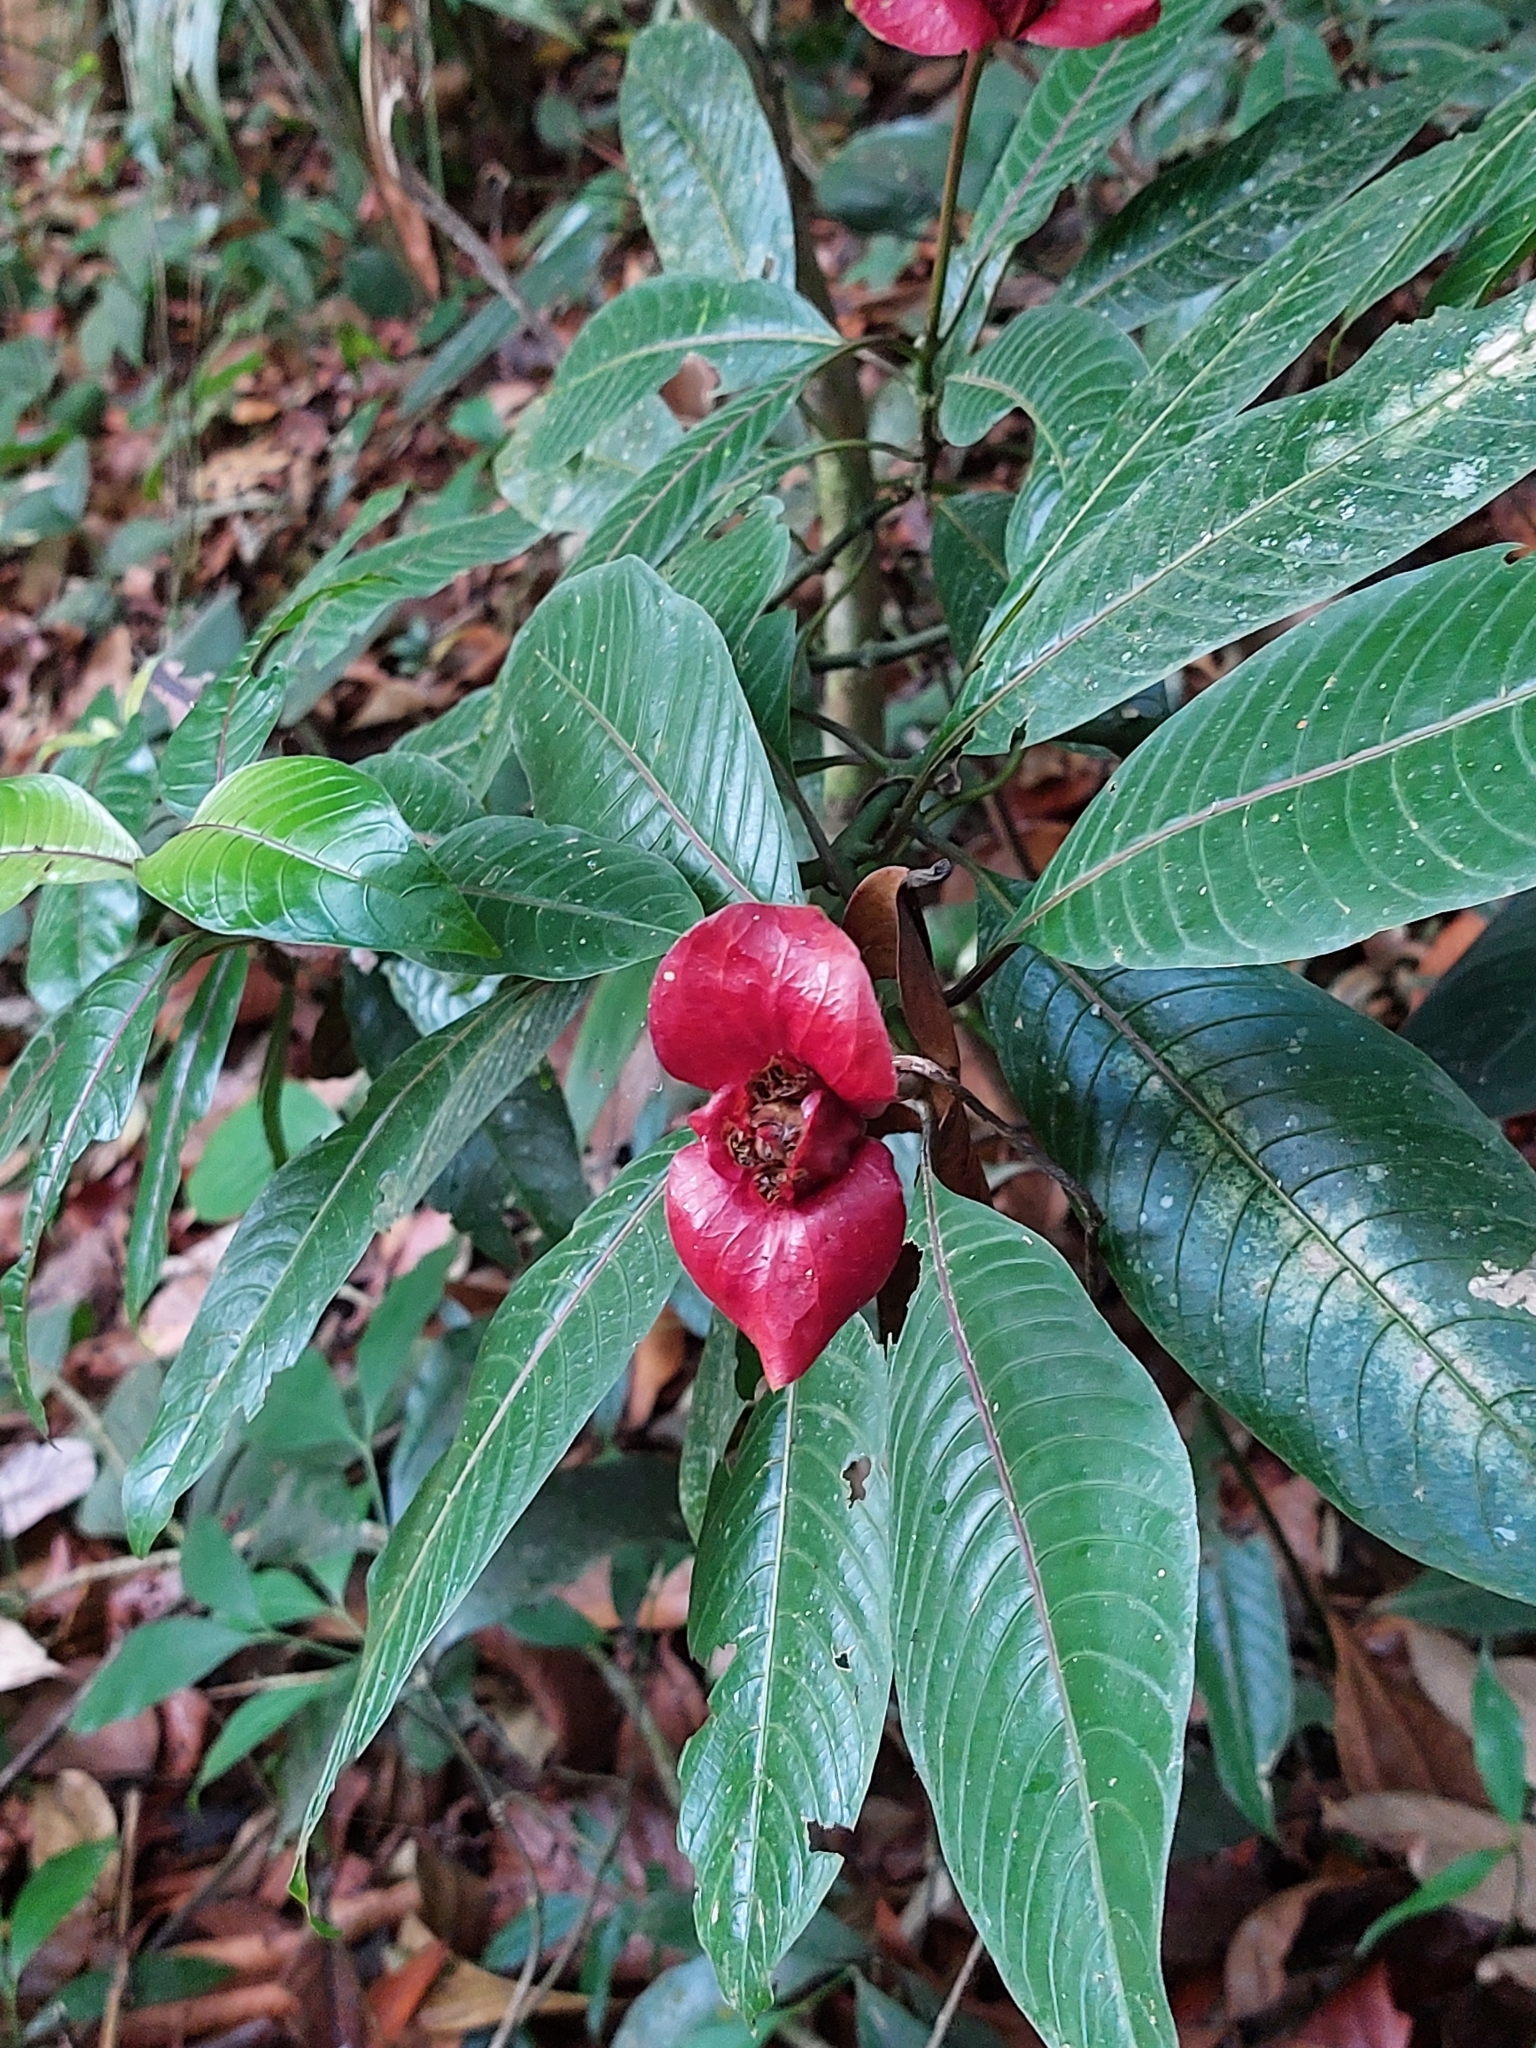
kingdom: Plantae
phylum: Tracheophyta
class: Magnoliopsida
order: Gentianales
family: Rubiaceae
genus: Palicourea
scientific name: Palicourea elata
